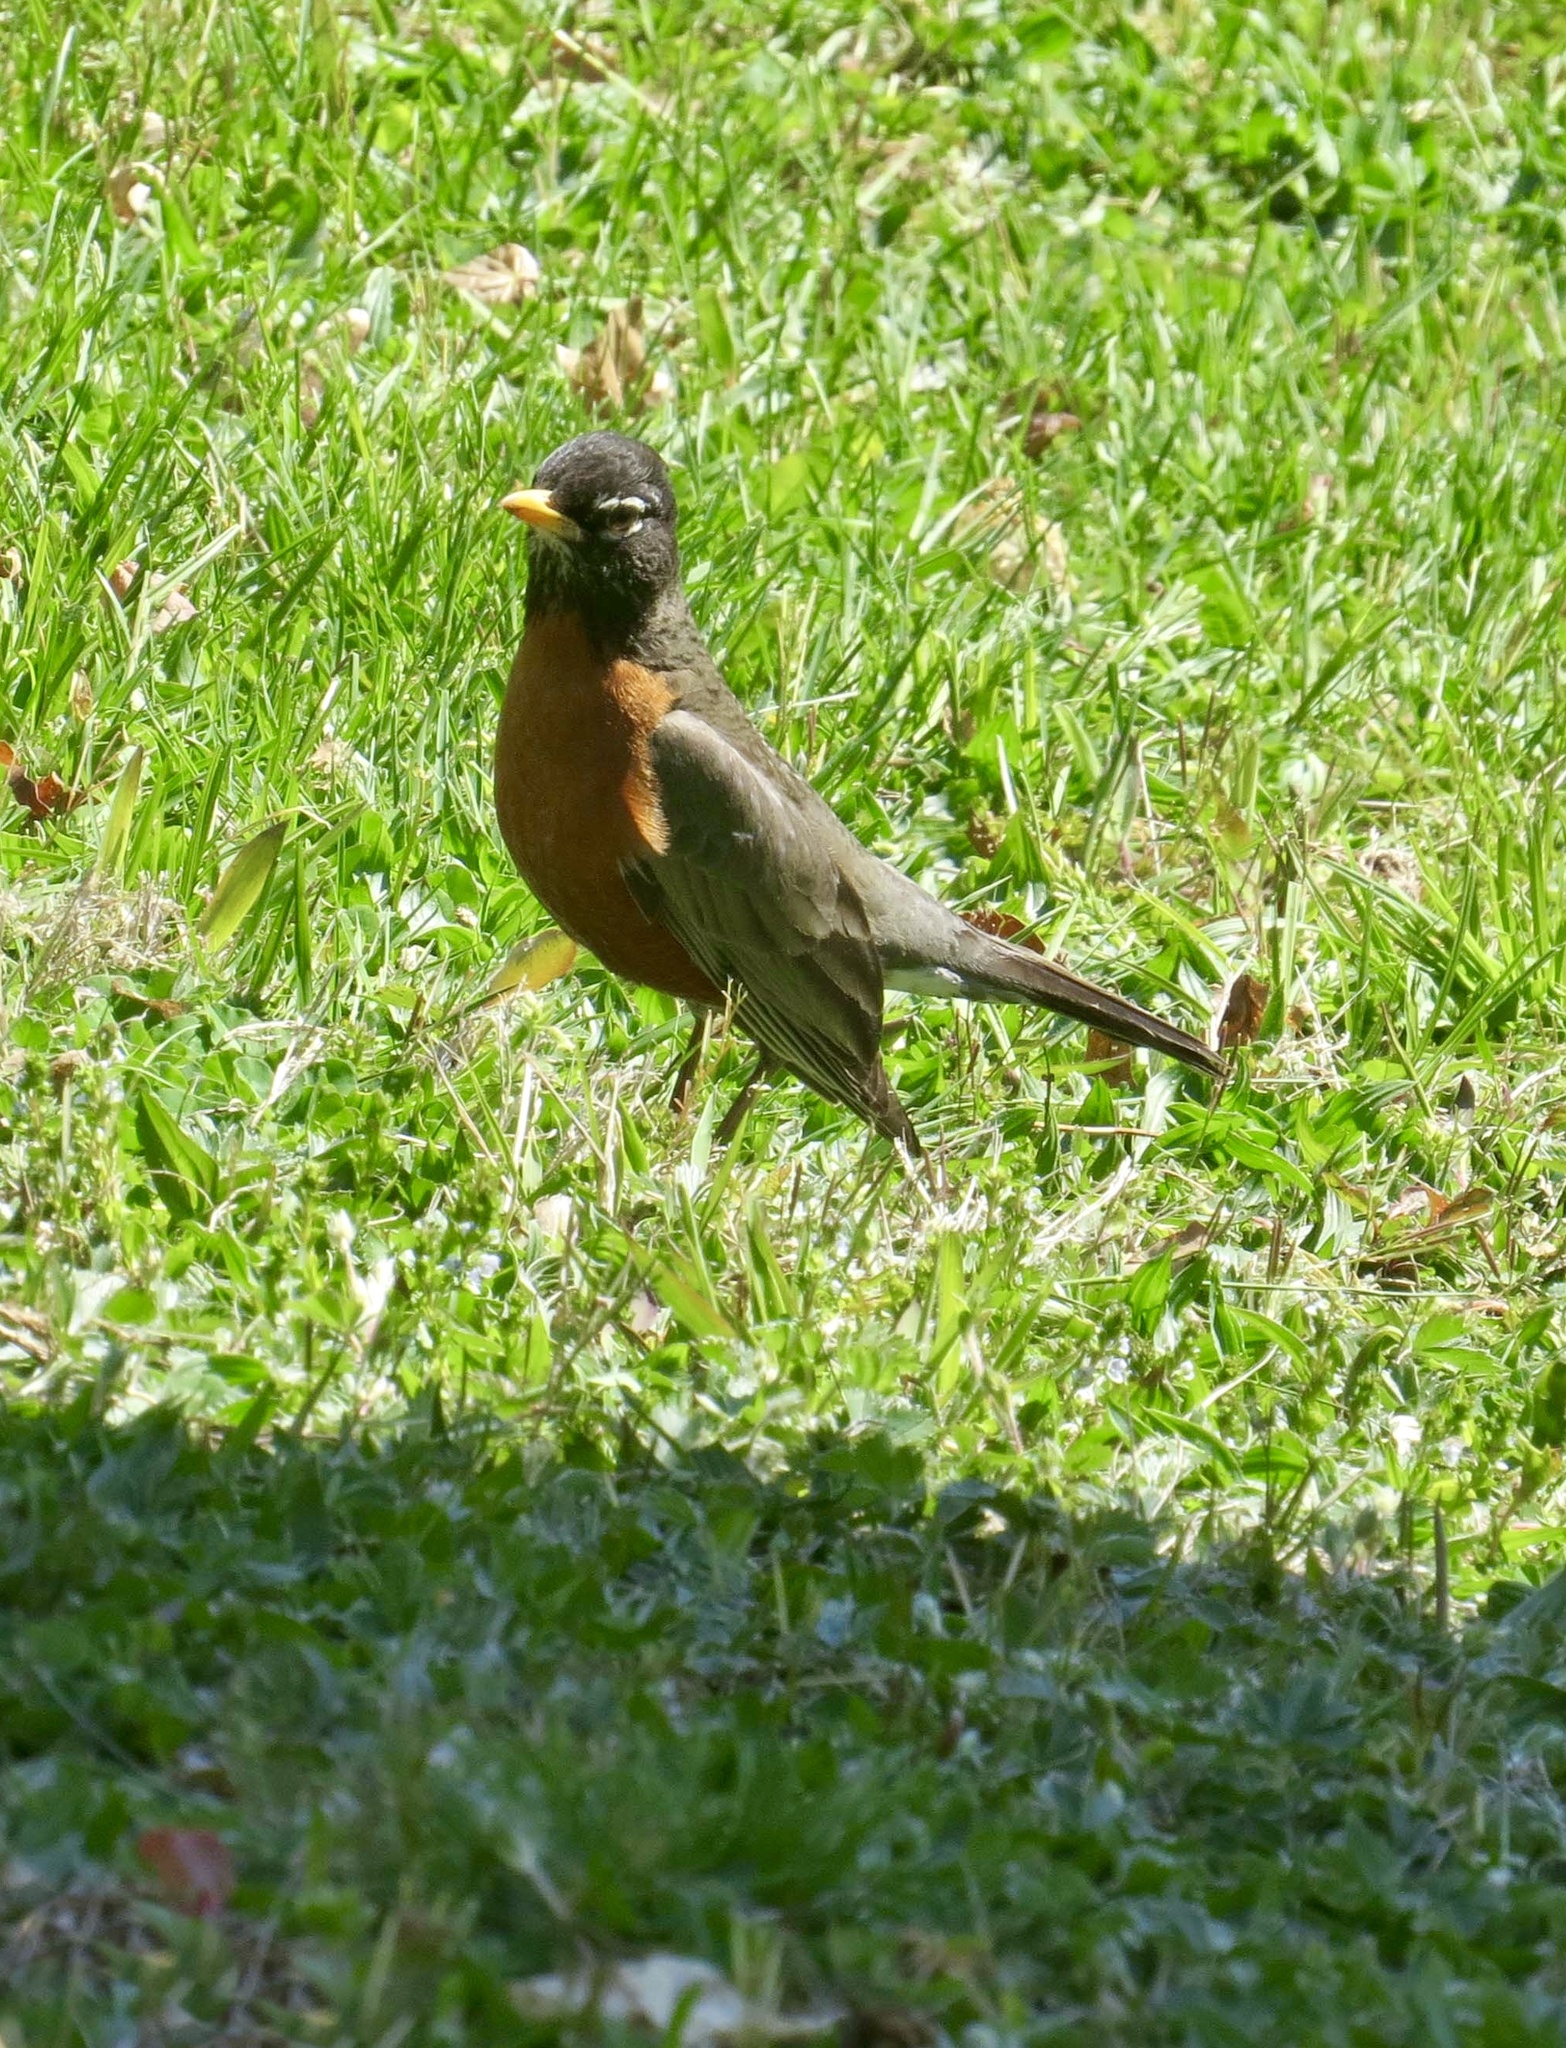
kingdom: Animalia
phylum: Chordata
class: Aves
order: Passeriformes
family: Turdidae
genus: Turdus
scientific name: Turdus migratorius
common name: American robin
